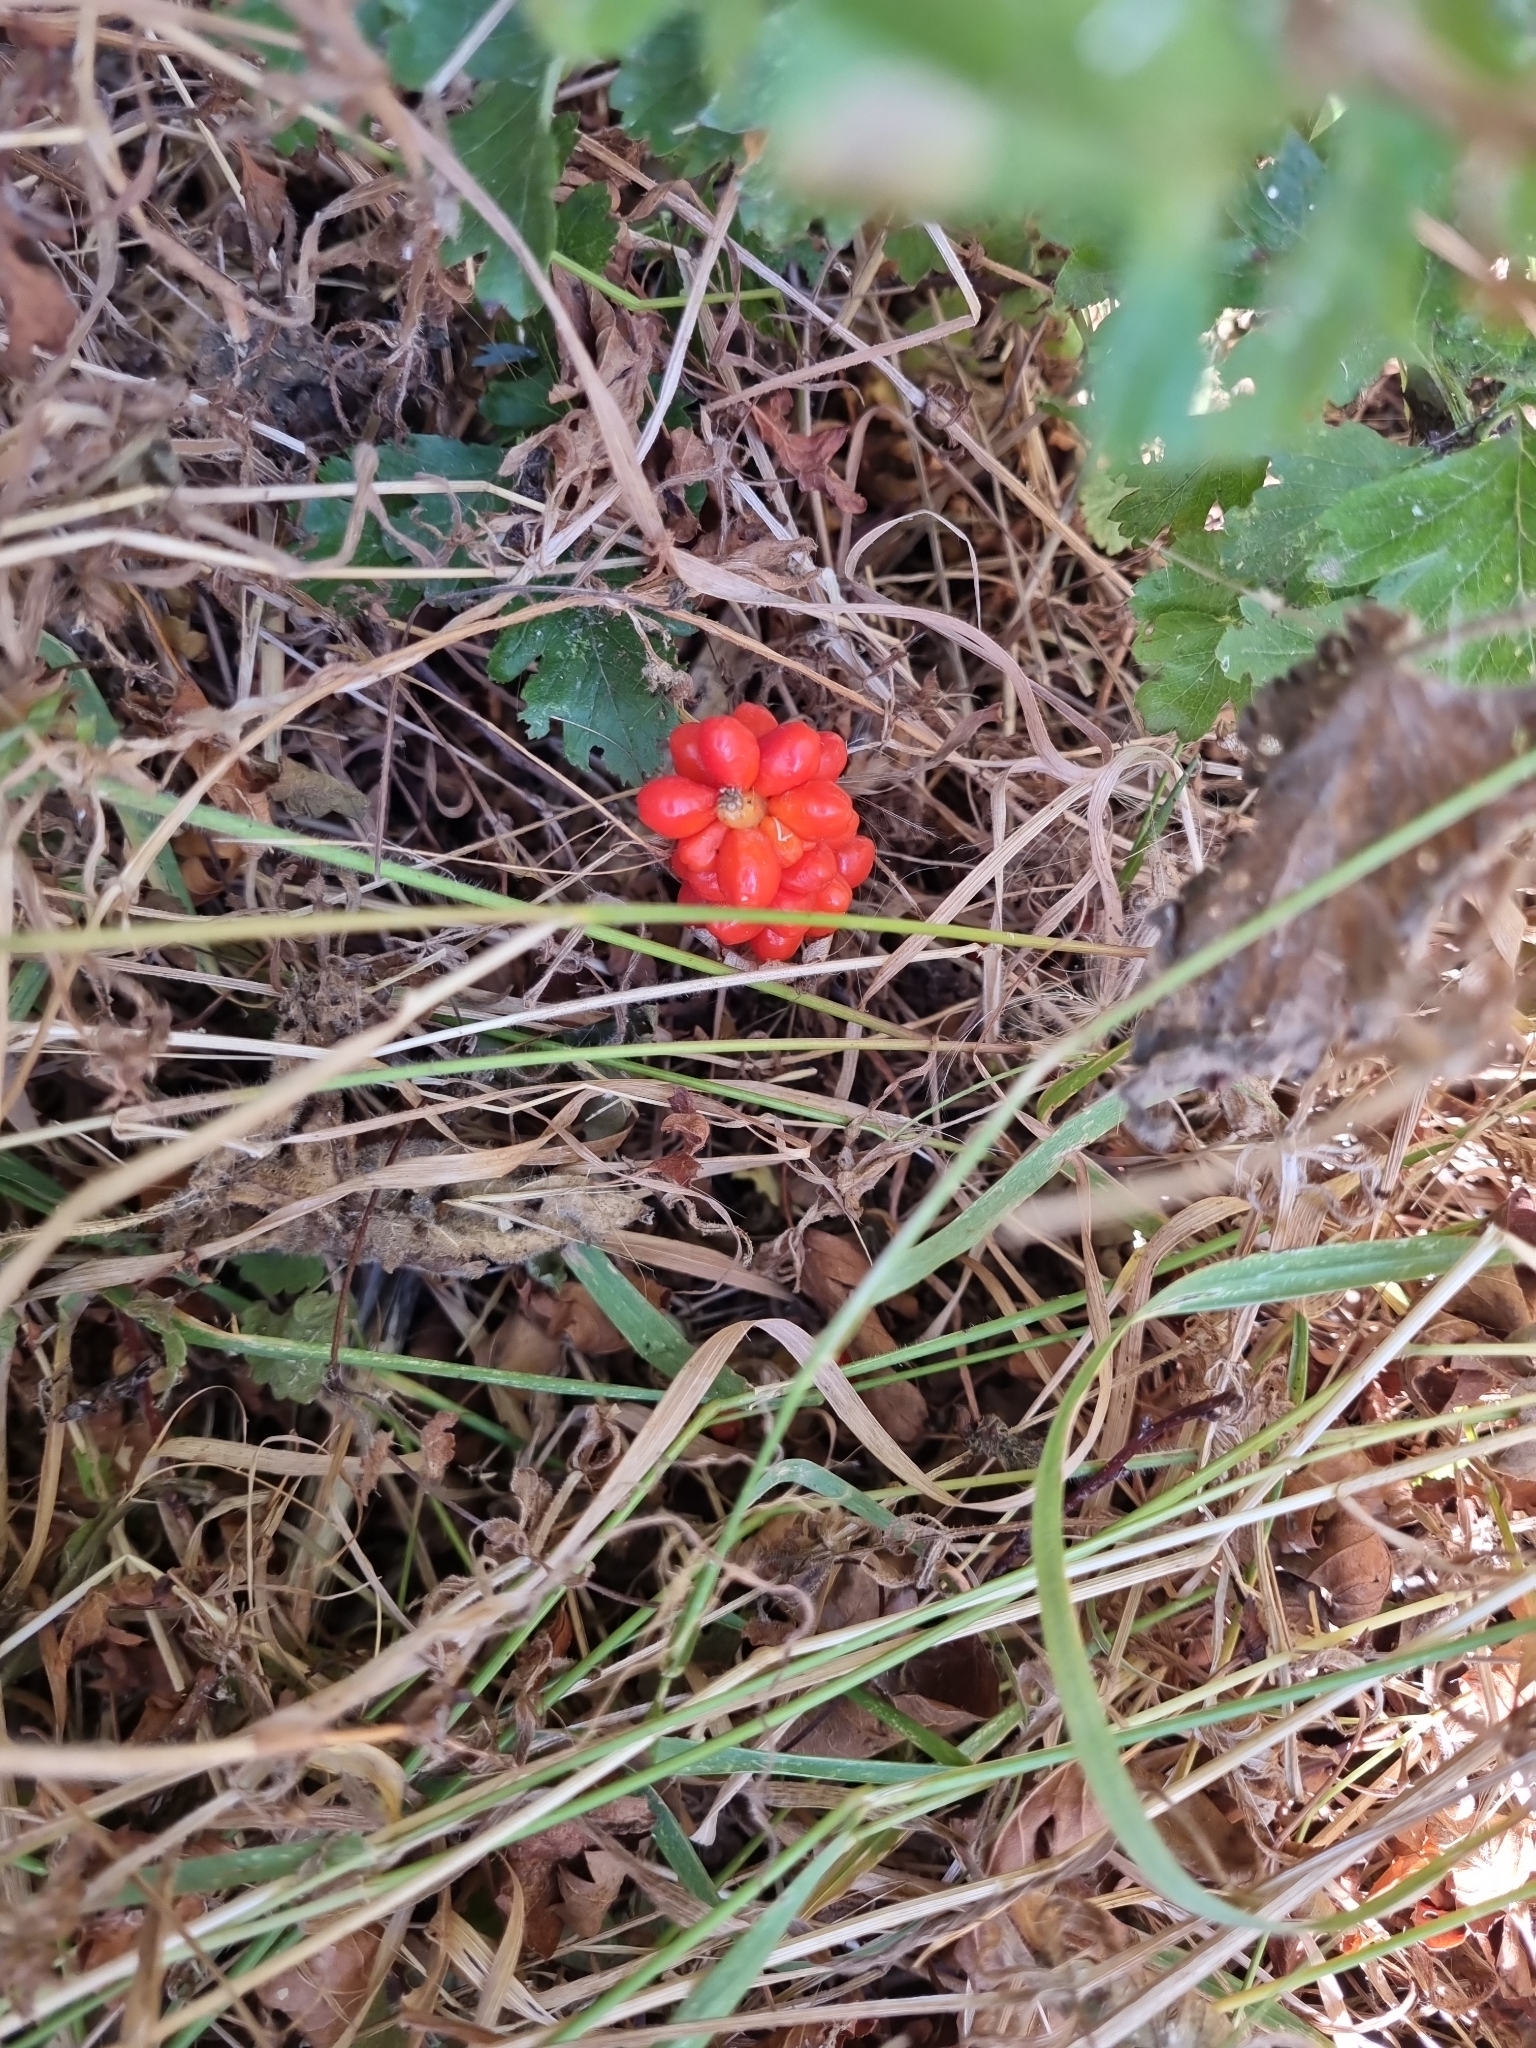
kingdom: Plantae
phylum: Tracheophyta
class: Liliopsida
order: Alismatales
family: Araceae
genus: Arum
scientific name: Arum maculatum
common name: Lords-and-ladies
